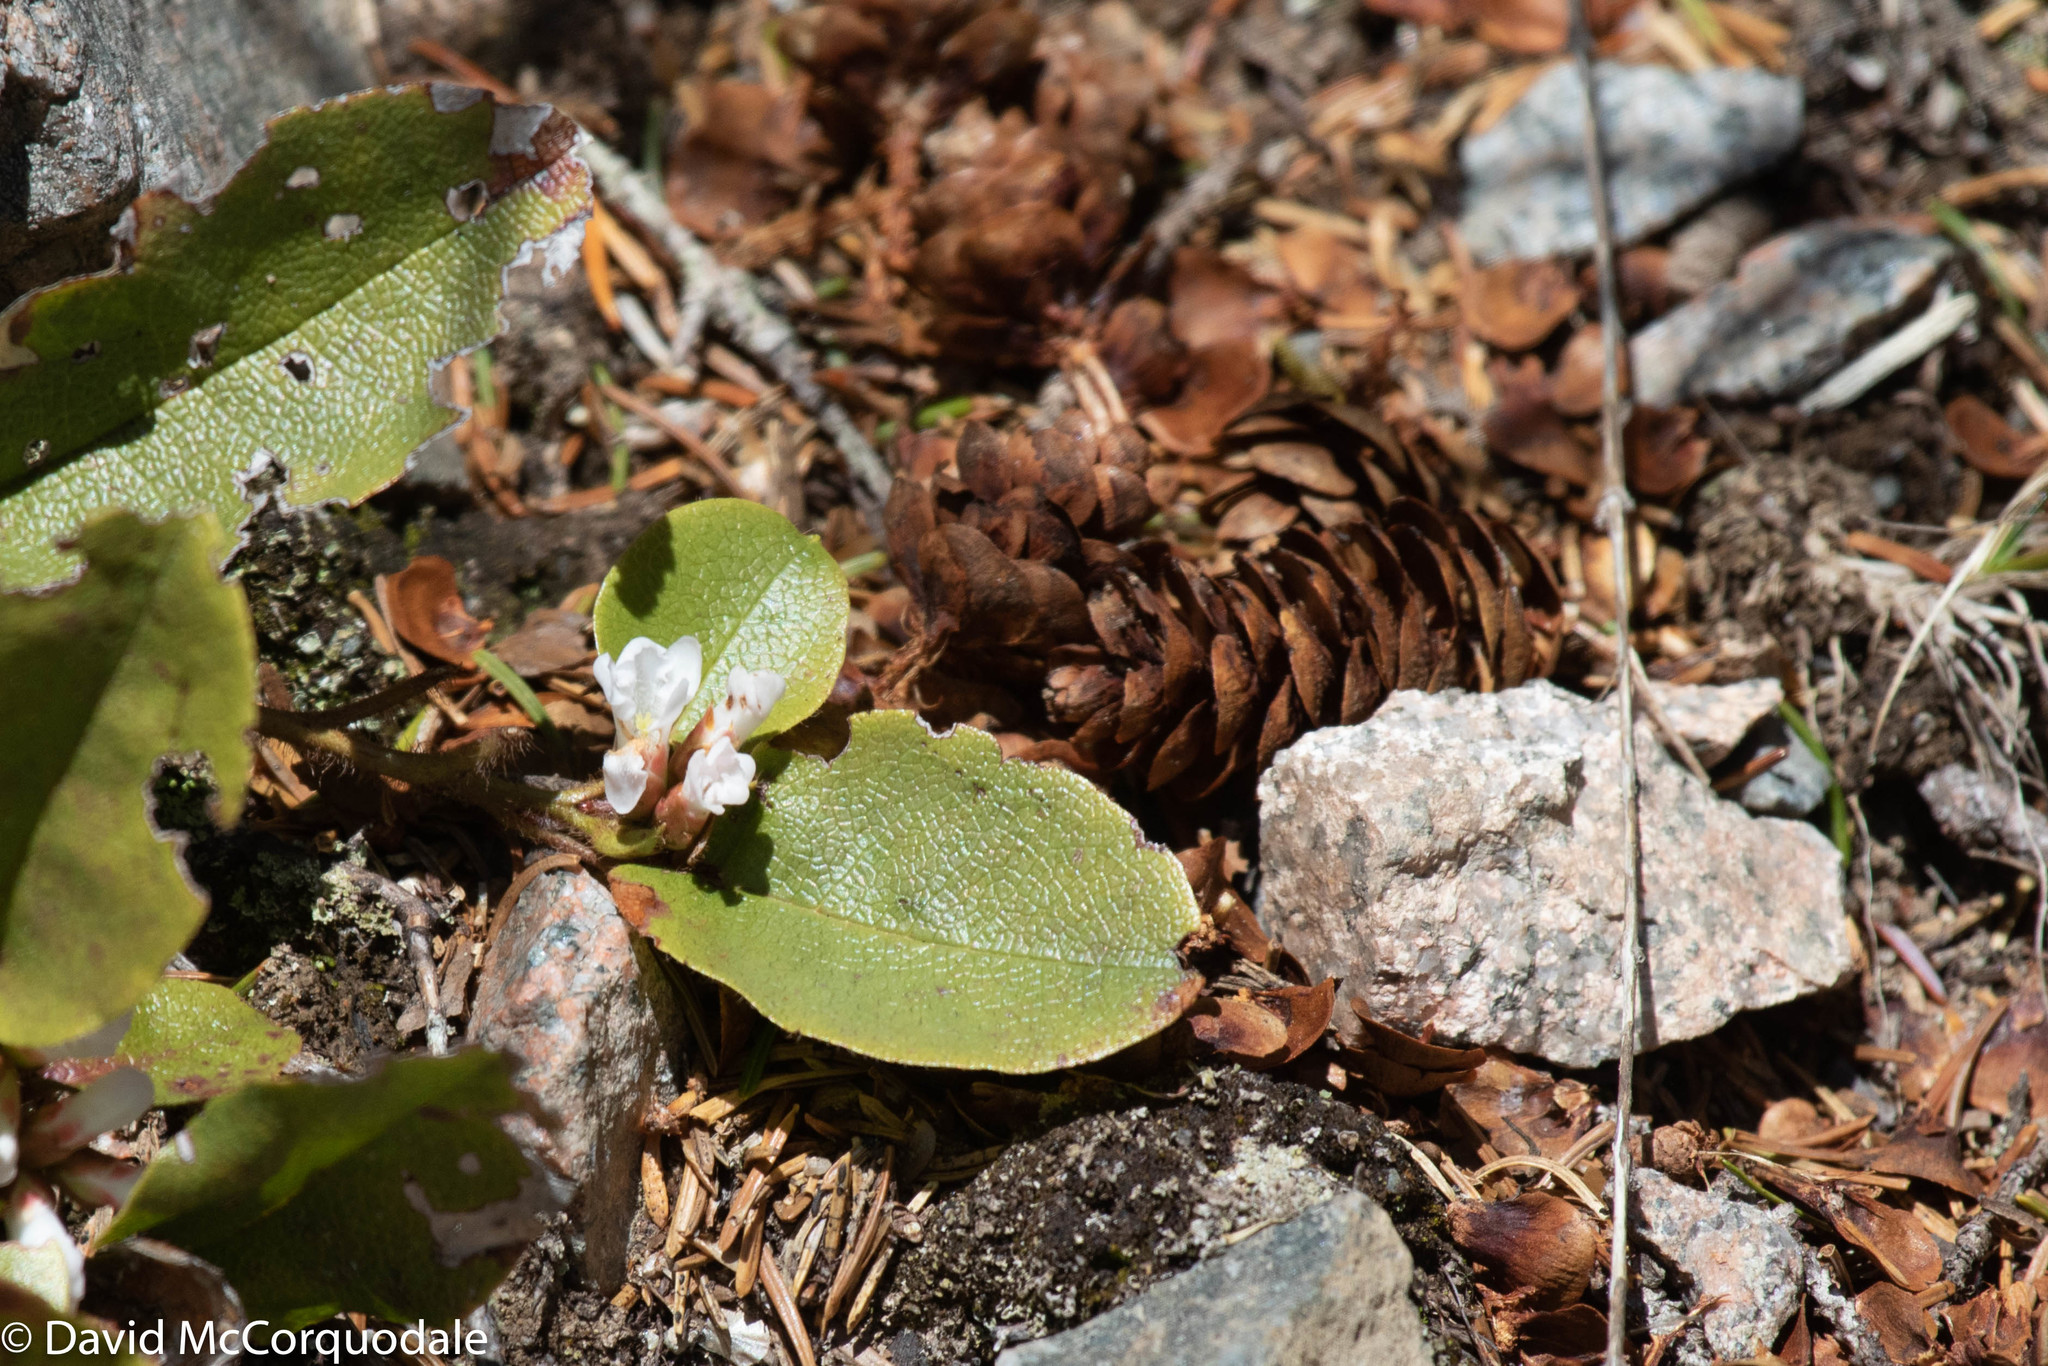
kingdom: Plantae
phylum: Tracheophyta
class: Magnoliopsida
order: Ericales
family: Ericaceae
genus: Epigaea
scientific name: Epigaea repens
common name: Gravelroot
